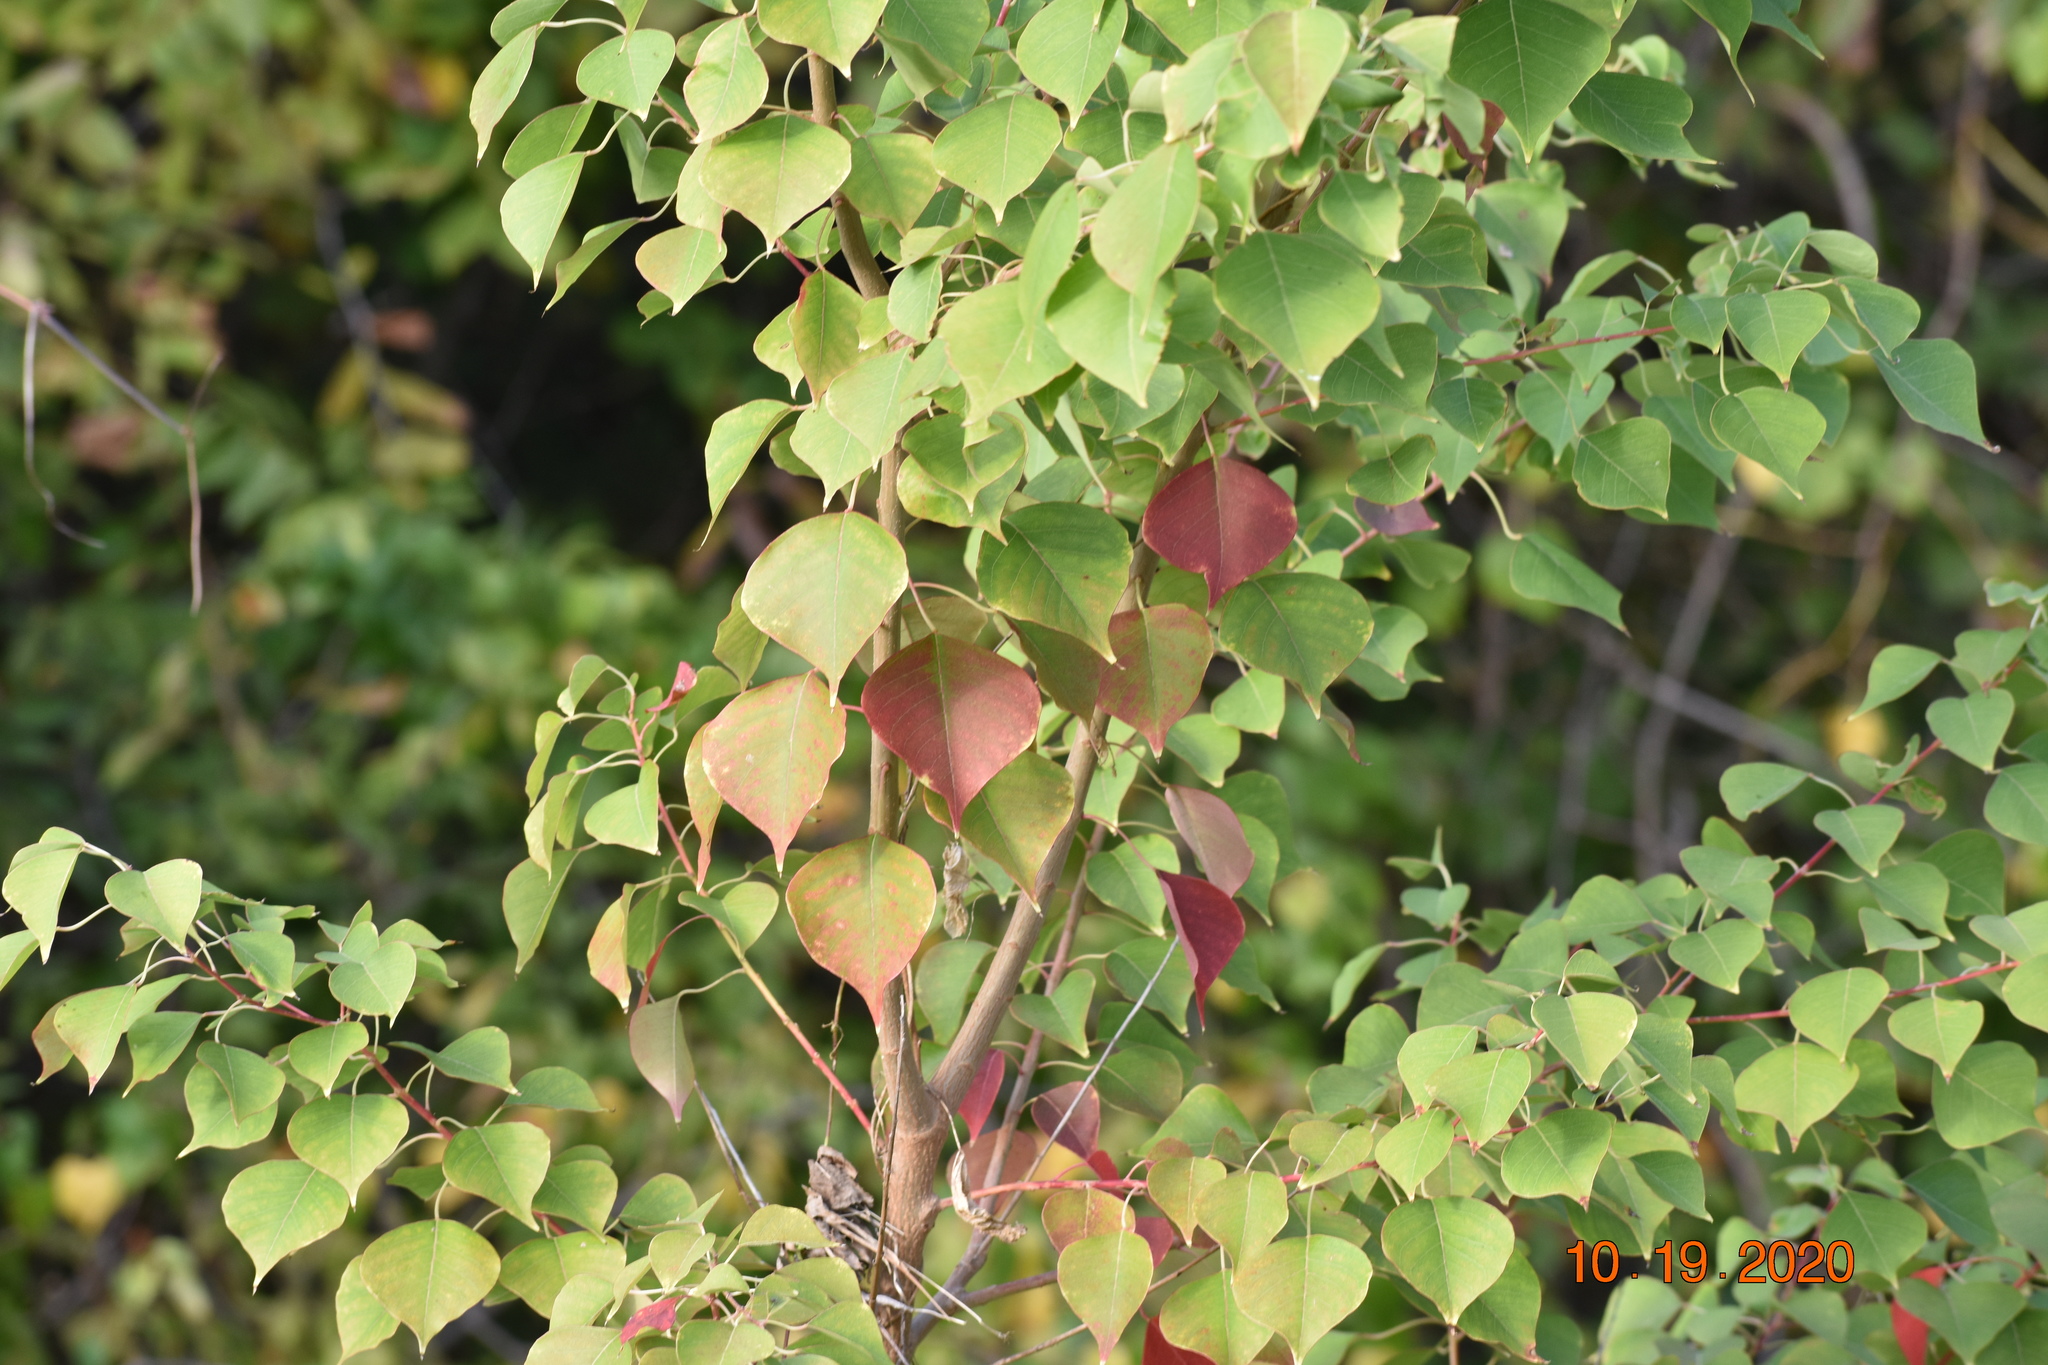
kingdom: Plantae
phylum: Tracheophyta
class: Magnoliopsida
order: Malpighiales
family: Euphorbiaceae
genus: Triadica
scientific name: Triadica sebifera
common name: Chinese tallow
